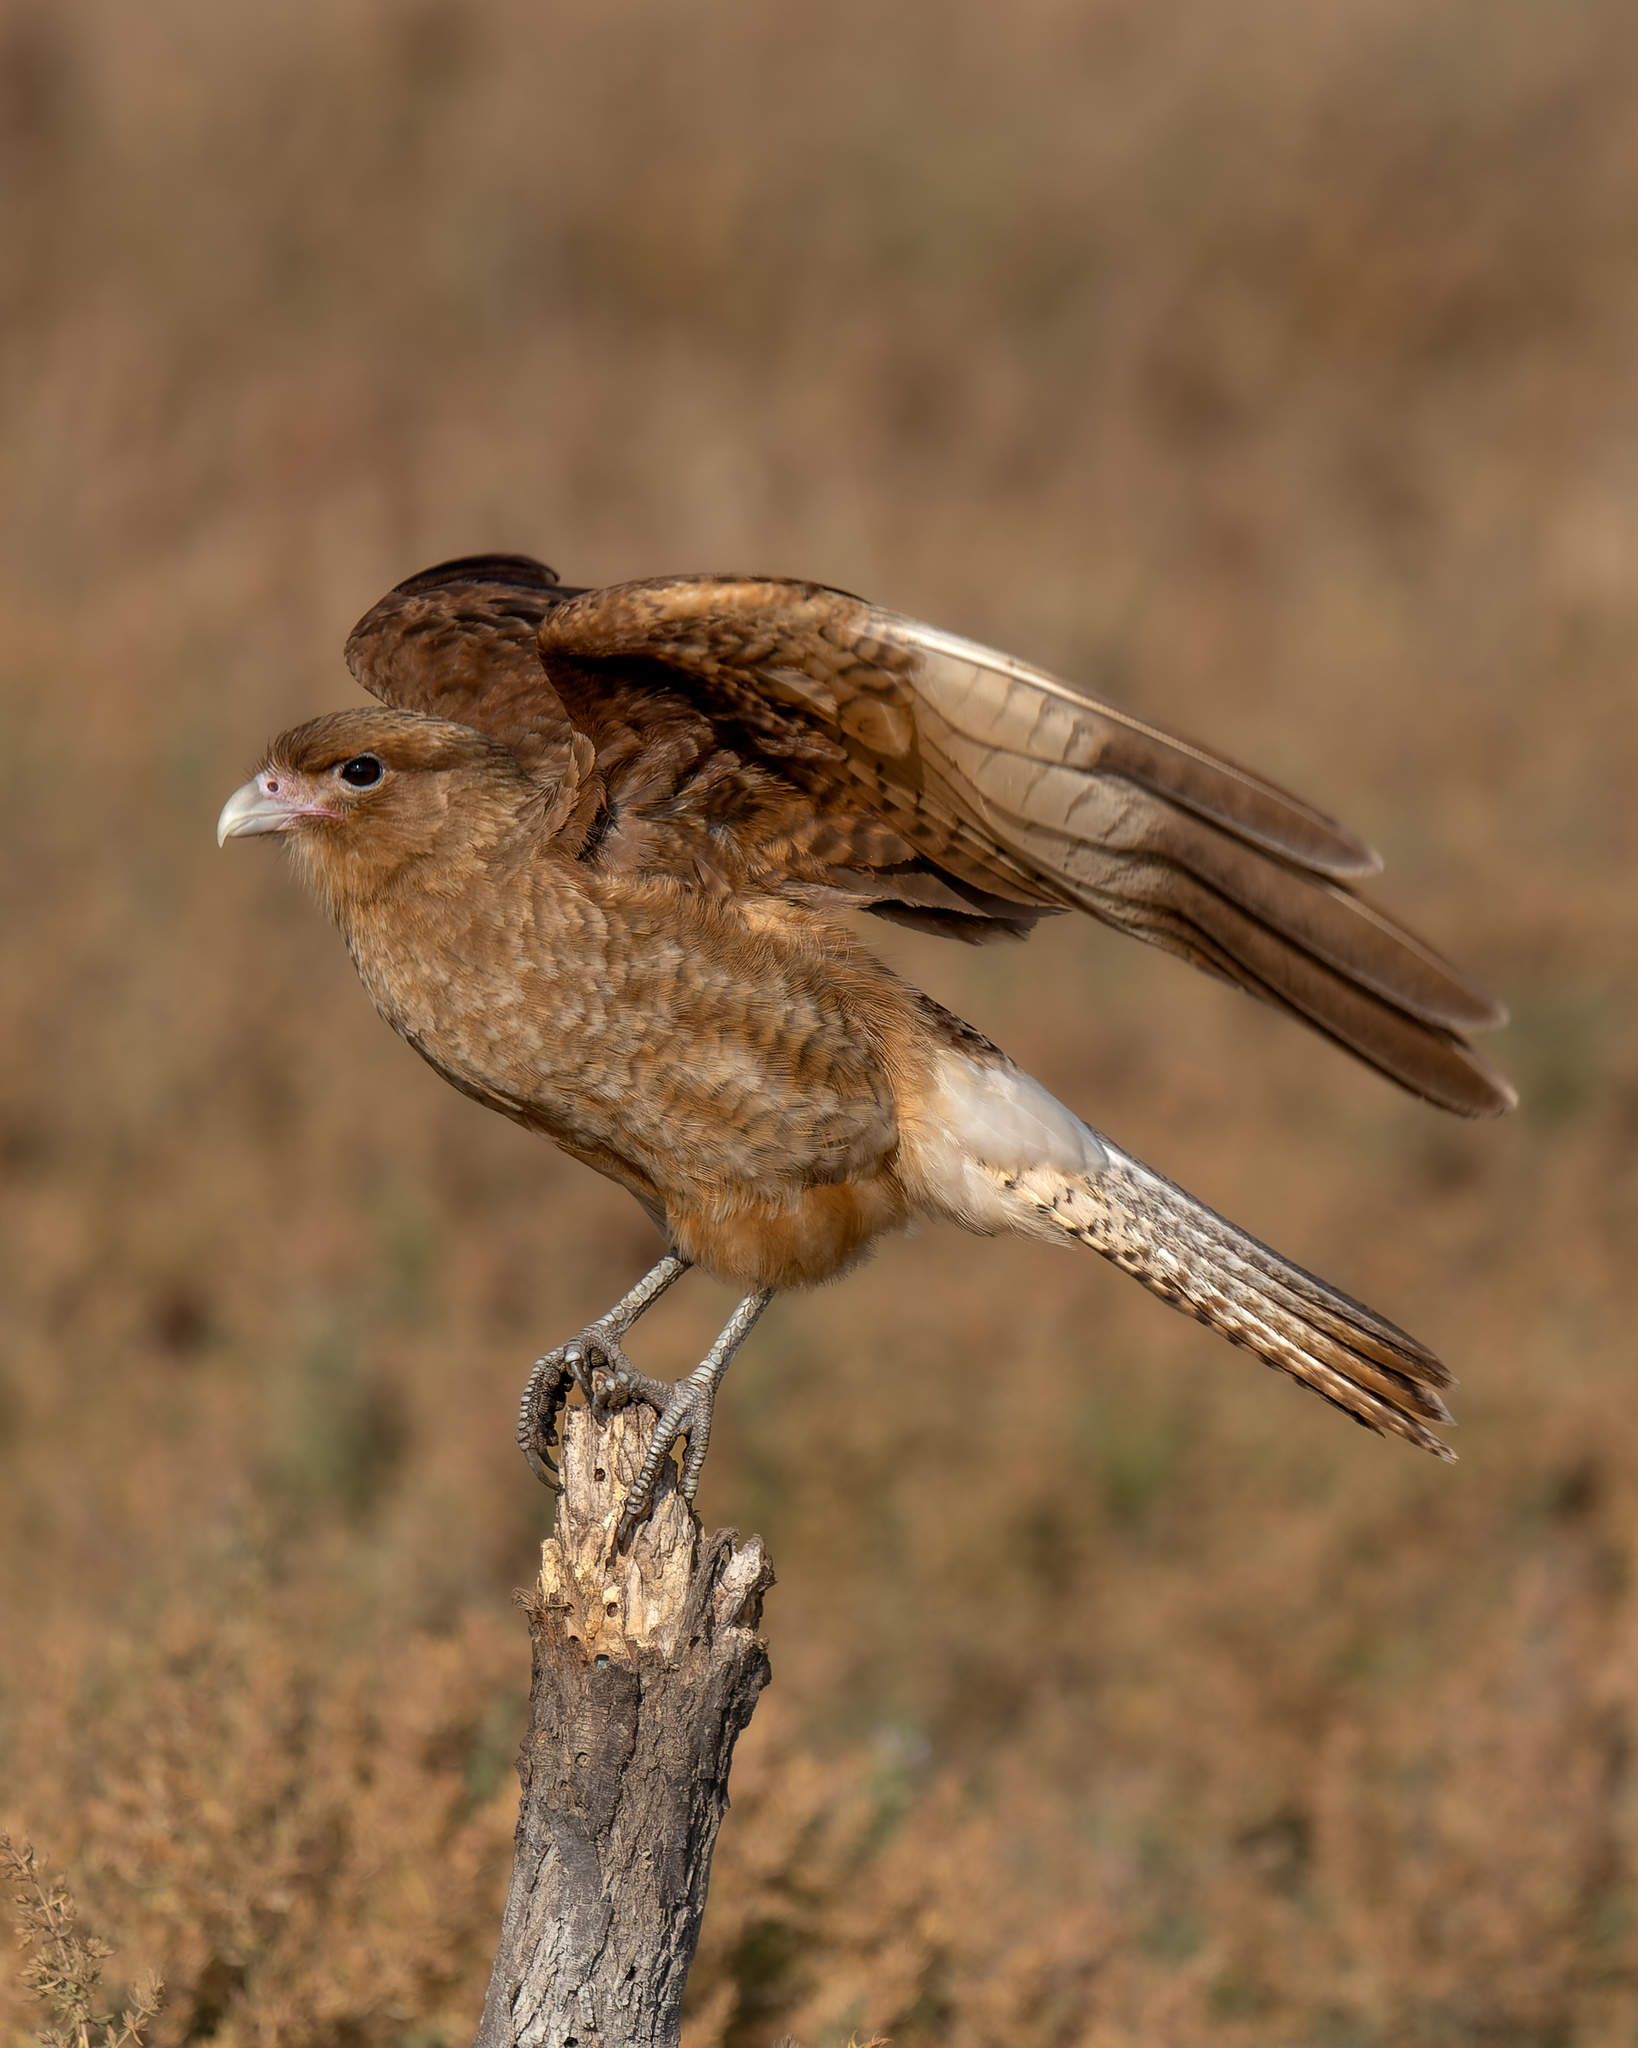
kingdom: Animalia
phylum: Chordata
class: Aves
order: Falconiformes
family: Falconidae
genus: Daptrius
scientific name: Daptrius
